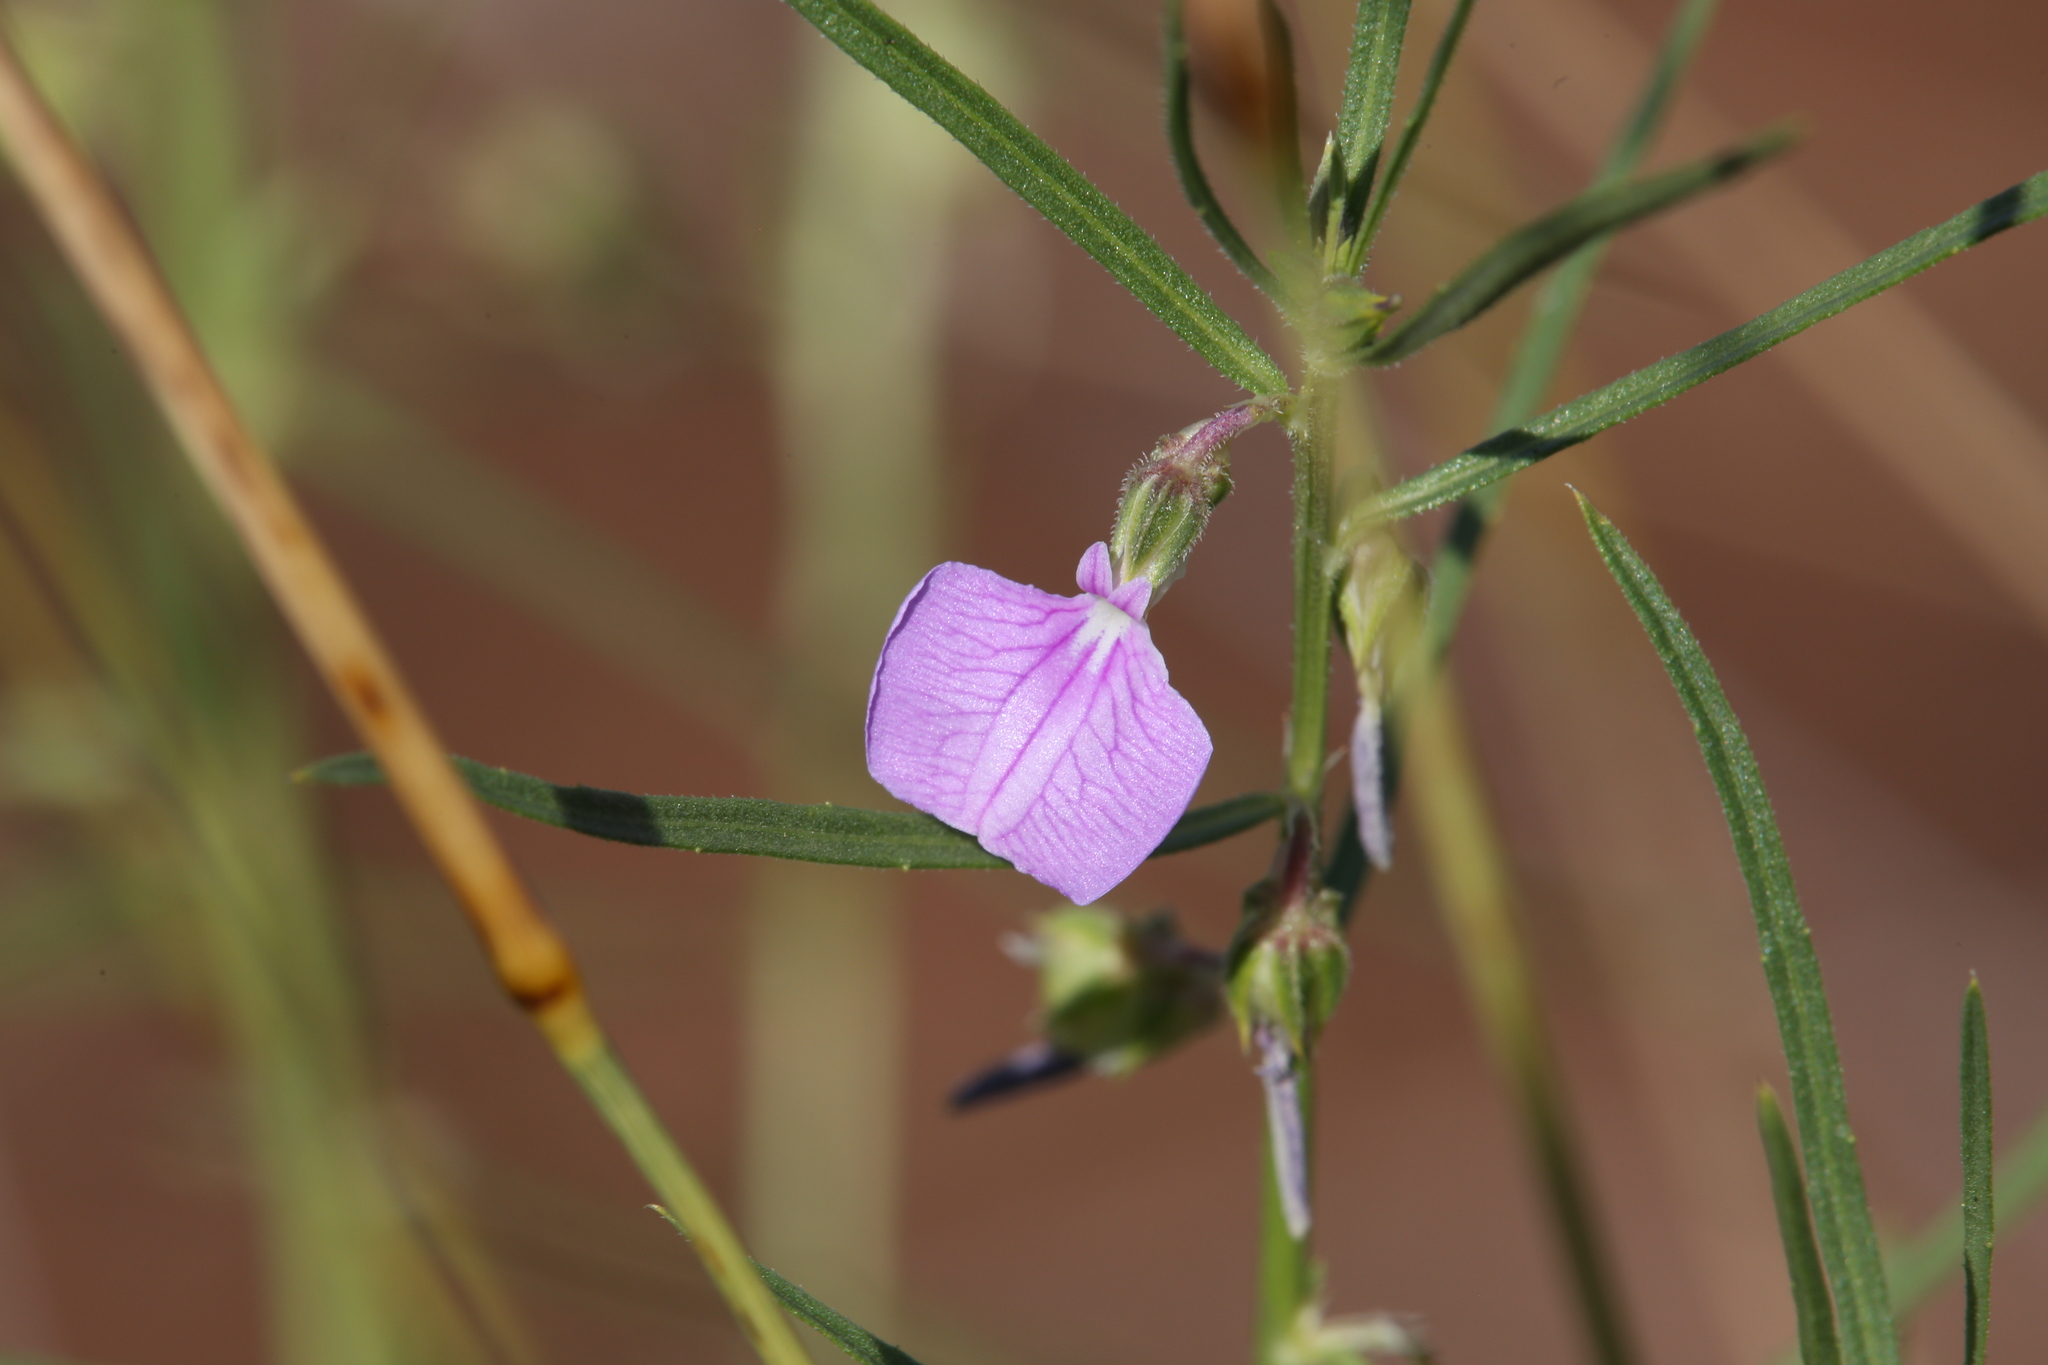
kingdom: Plantae
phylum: Tracheophyta
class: Magnoliopsida
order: Malpighiales
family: Violaceae
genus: Pigea
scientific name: Pigea enneasperma
